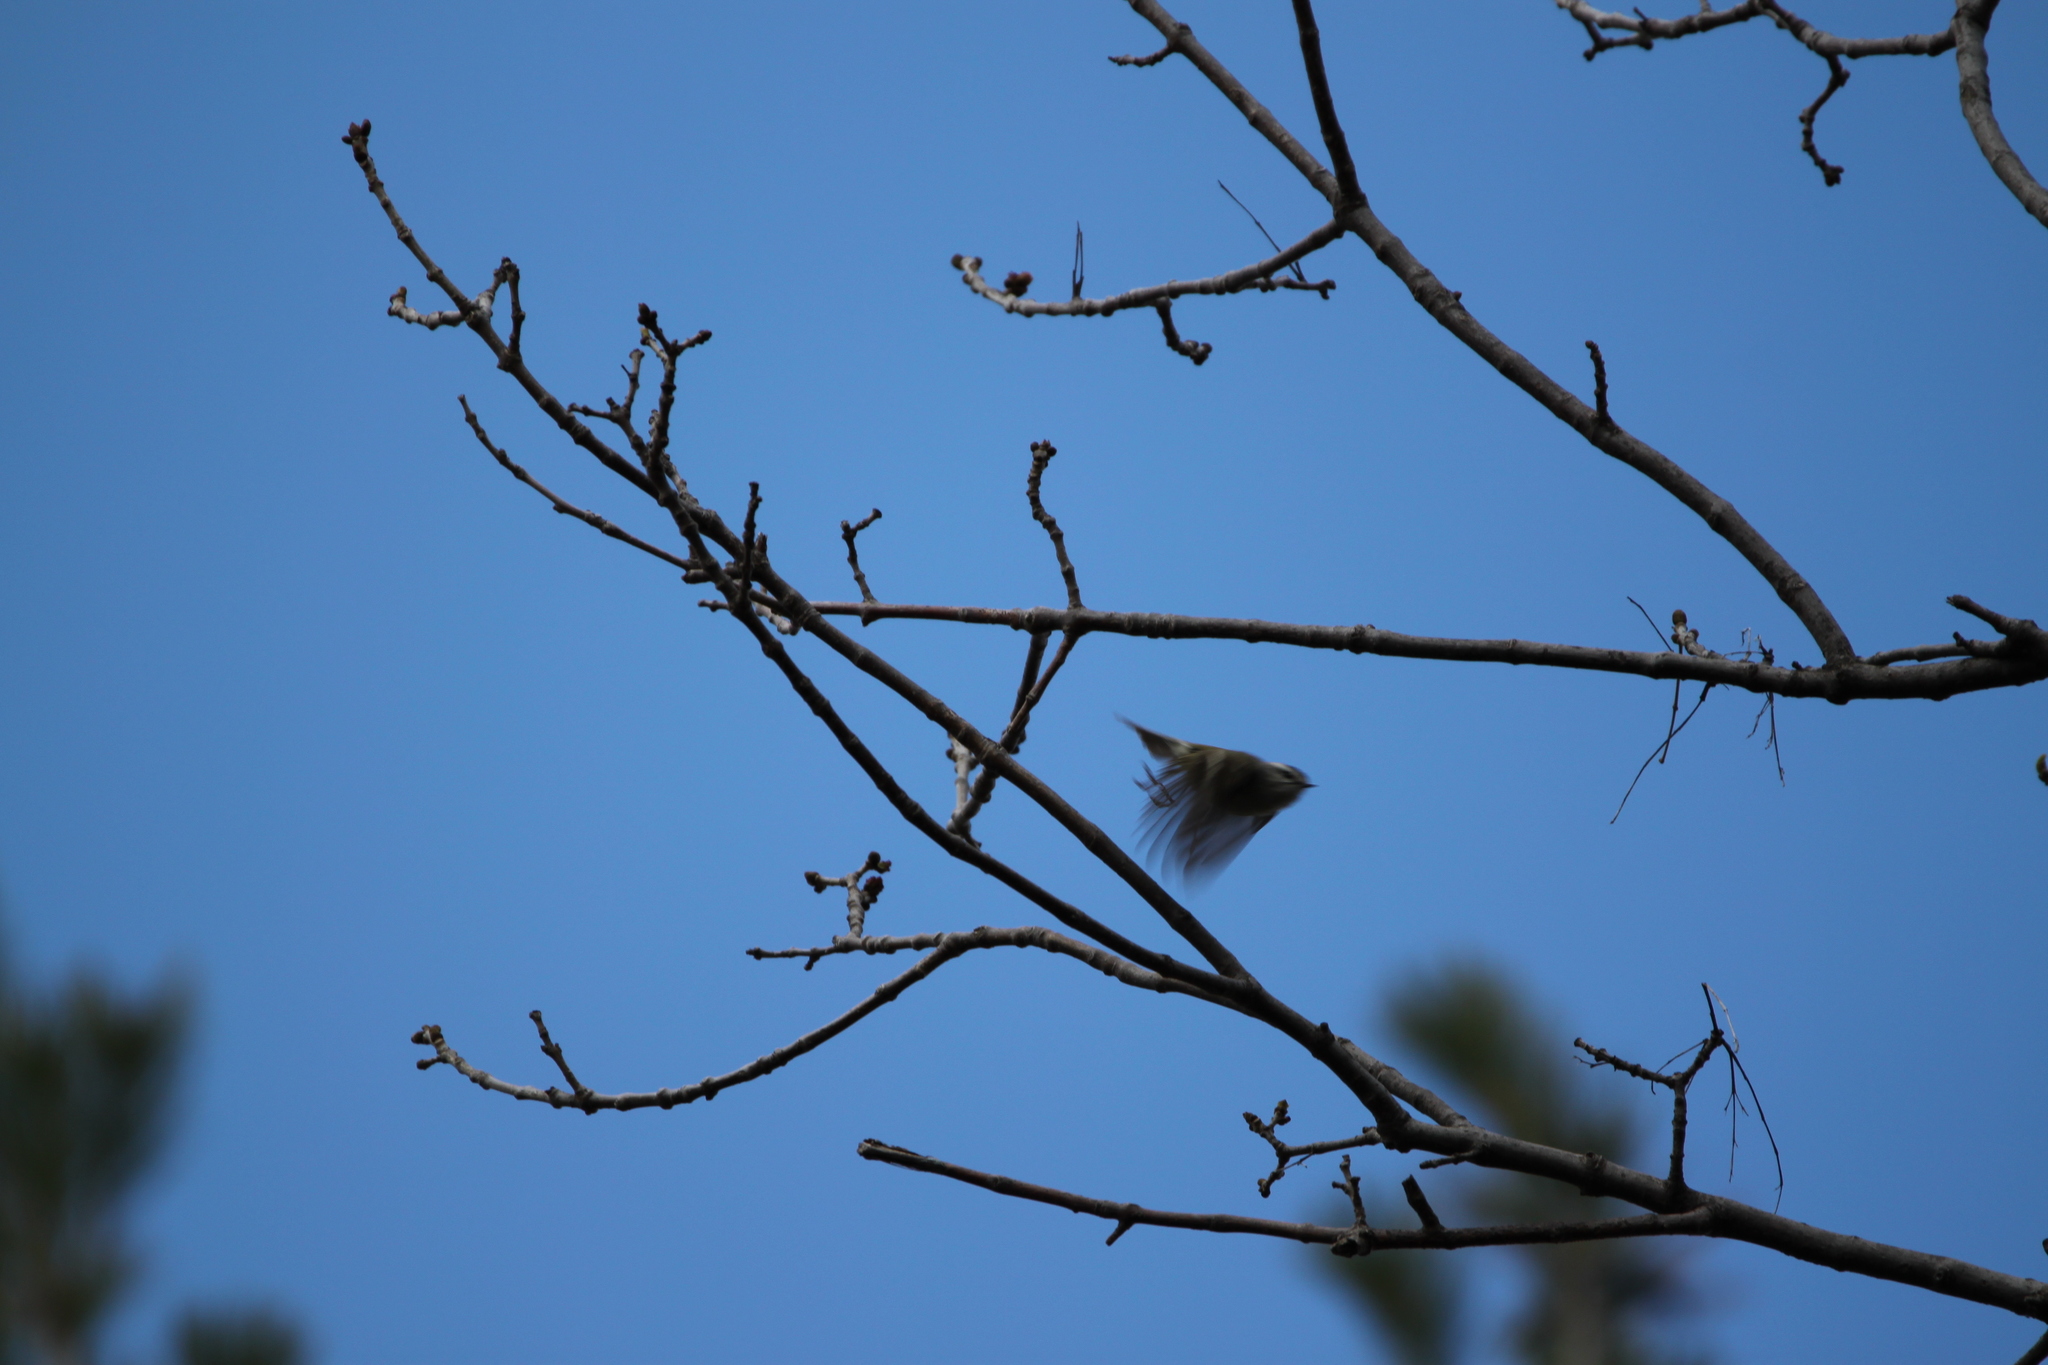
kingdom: Animalia
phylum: Chordata
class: Aves
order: Passeriformes
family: Regulidae
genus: Regulus
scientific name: Regulus satrapa
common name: Golden-crowned kinglet
